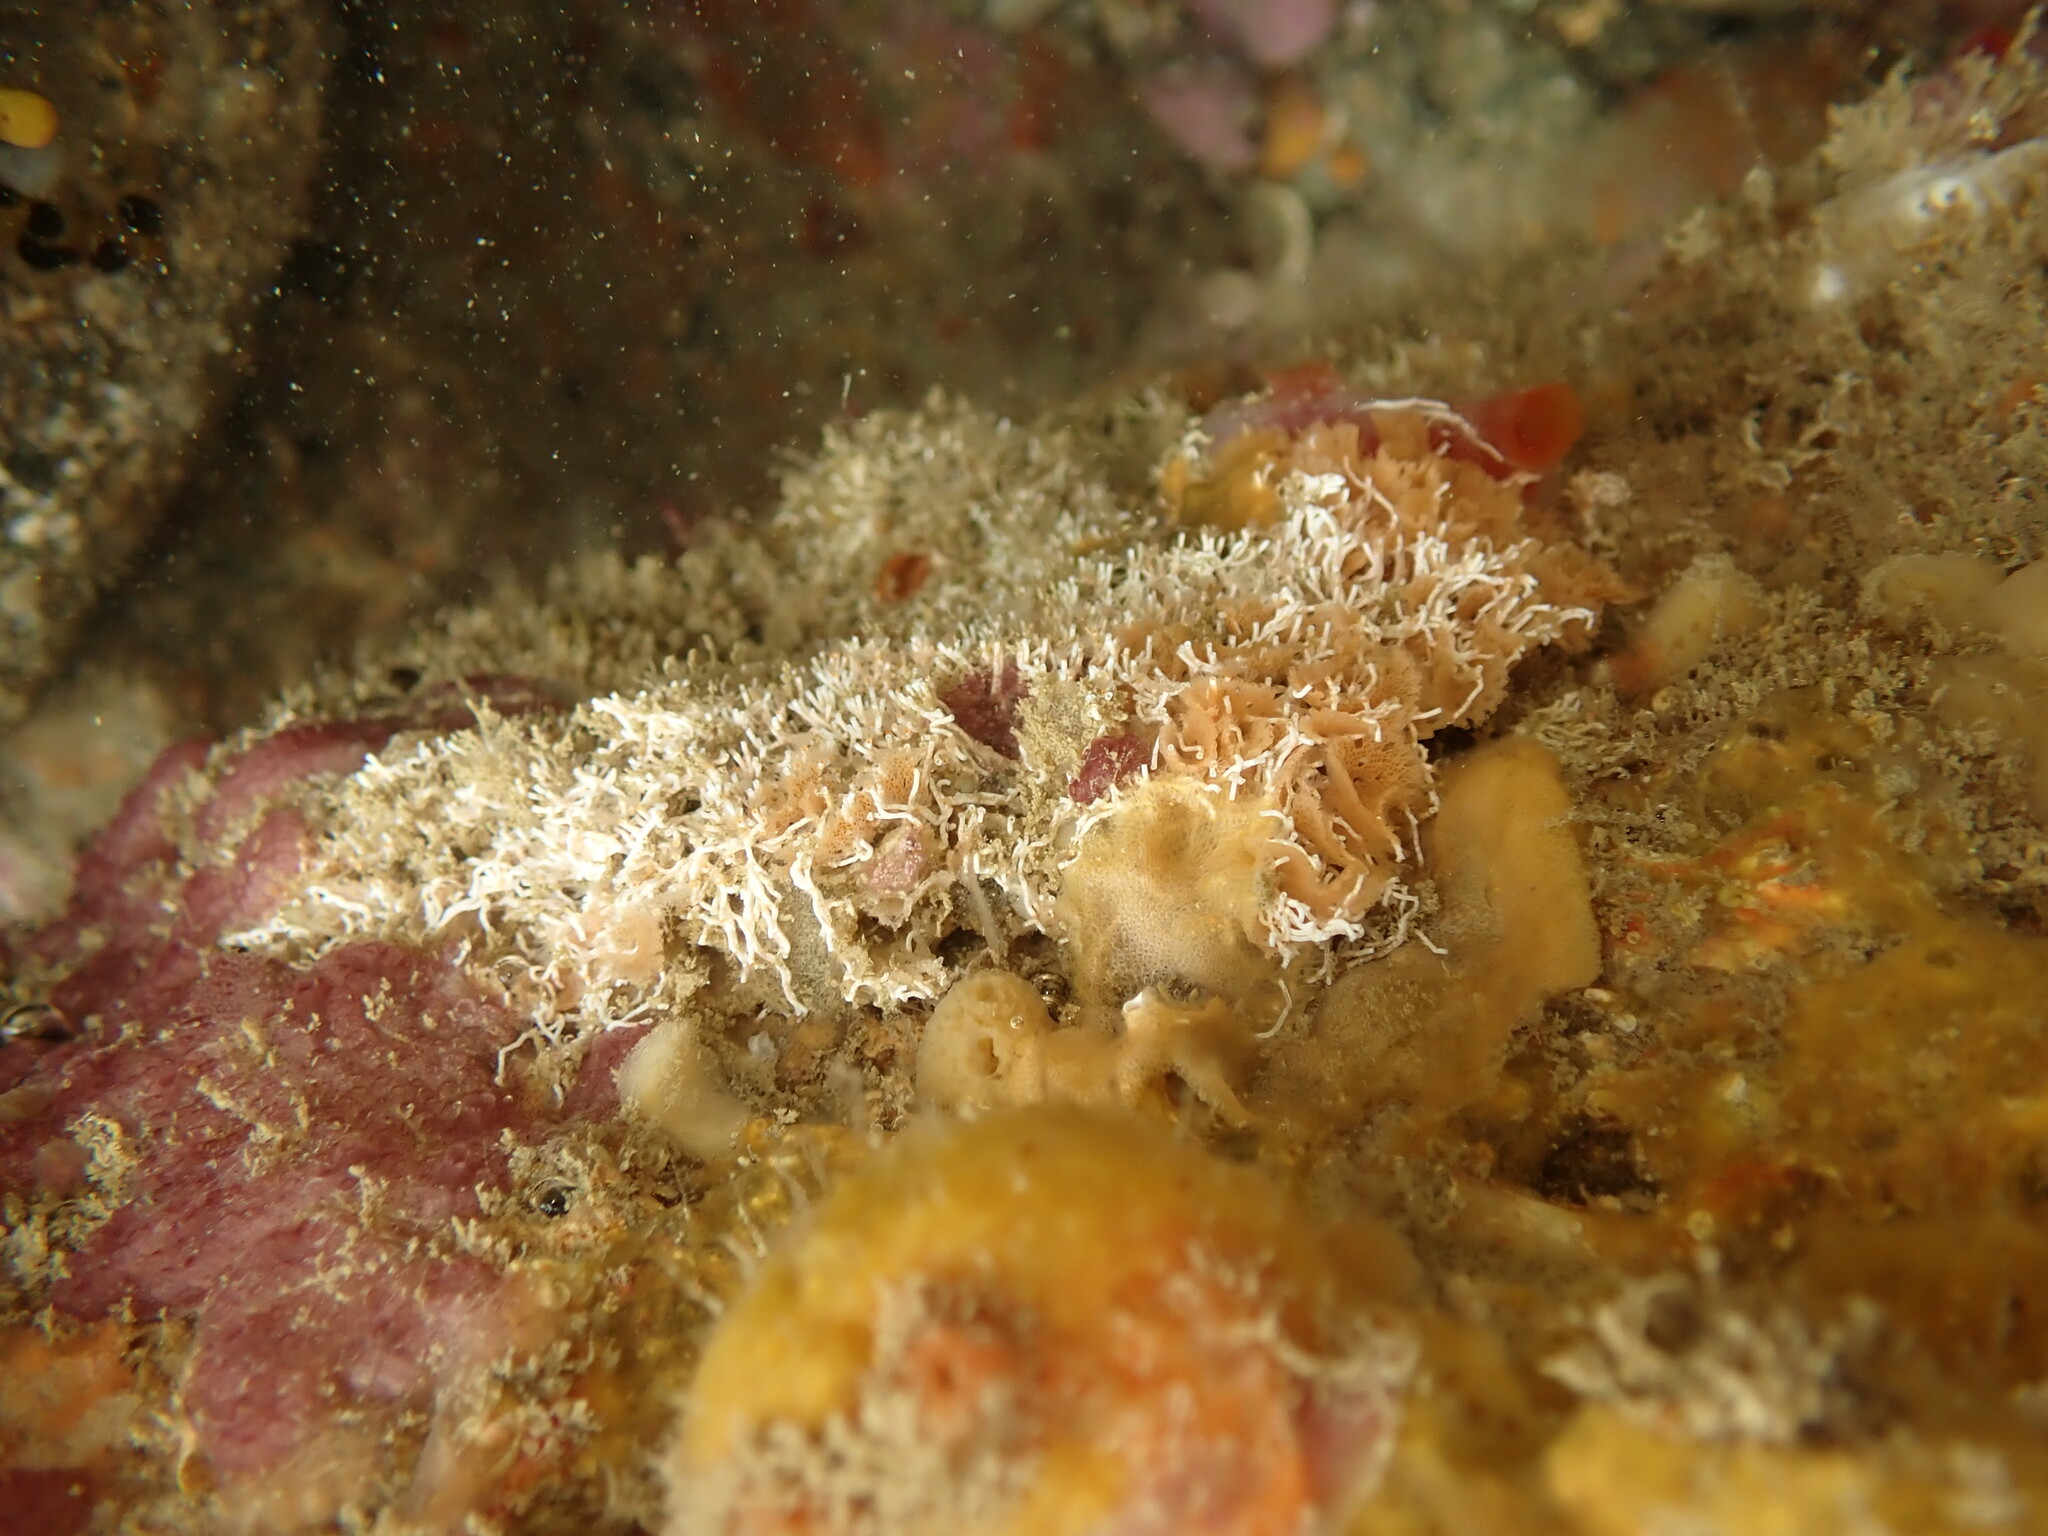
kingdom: Animalia
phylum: Annelida
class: Polychaeta
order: Sabellida
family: Serpulidae
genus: Salmacina
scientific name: Salmacina australis
